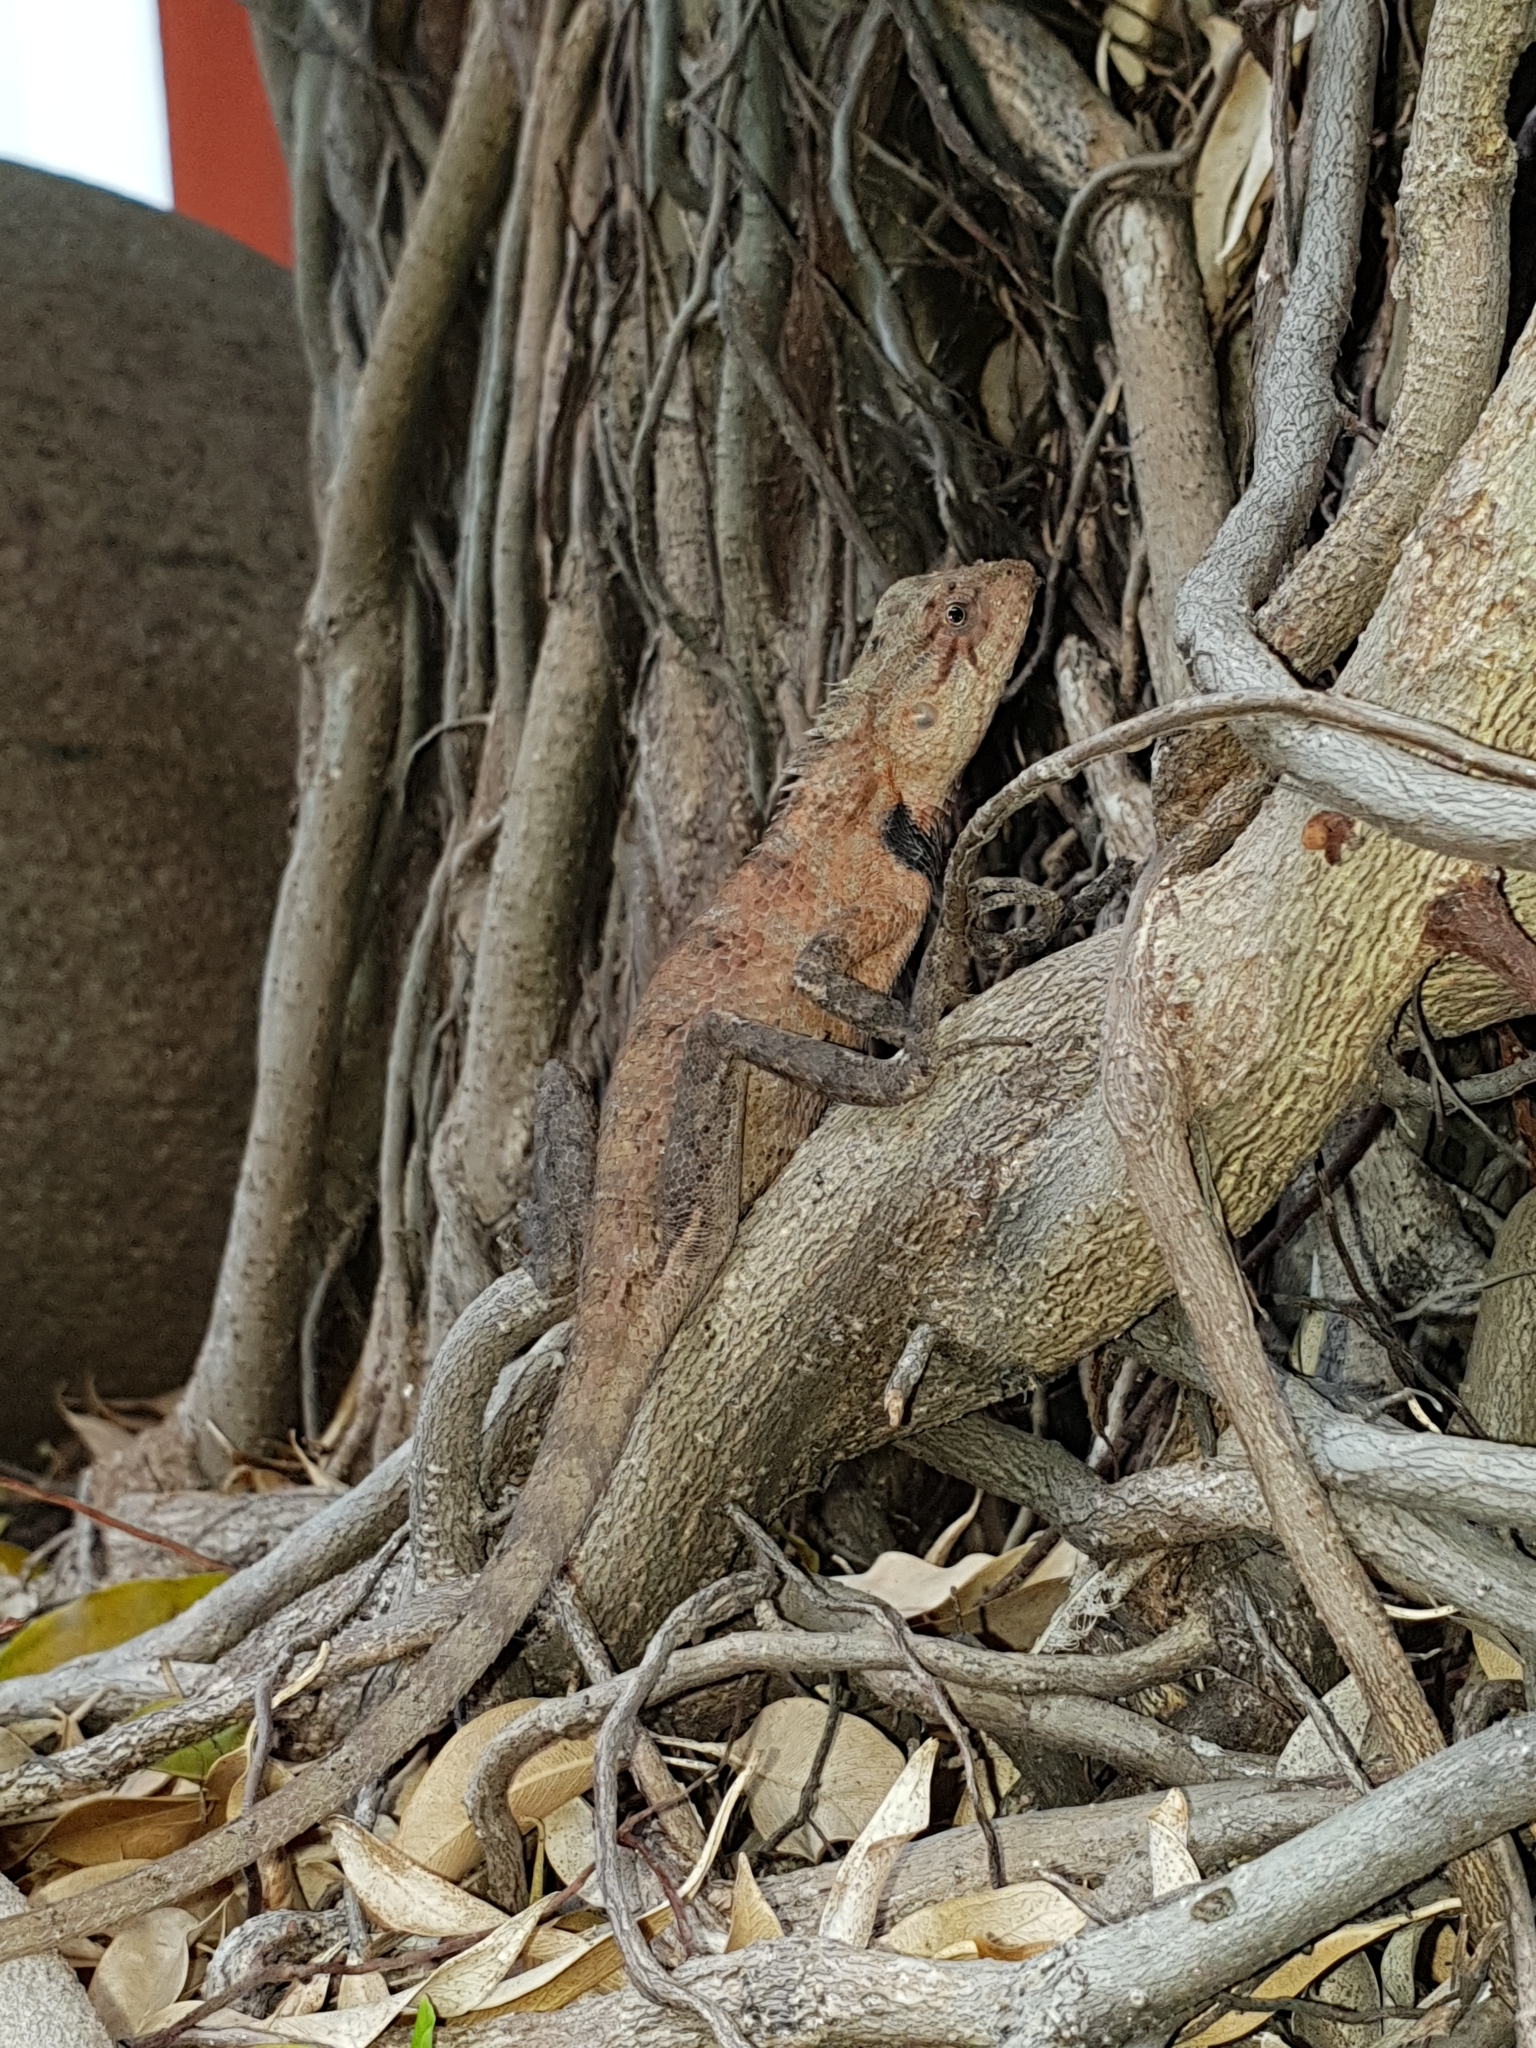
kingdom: Animalia
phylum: Chordata
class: Squamata
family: Agamidae
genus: Calotes
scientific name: Calotes versicolor
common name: Oriental garden lizard
